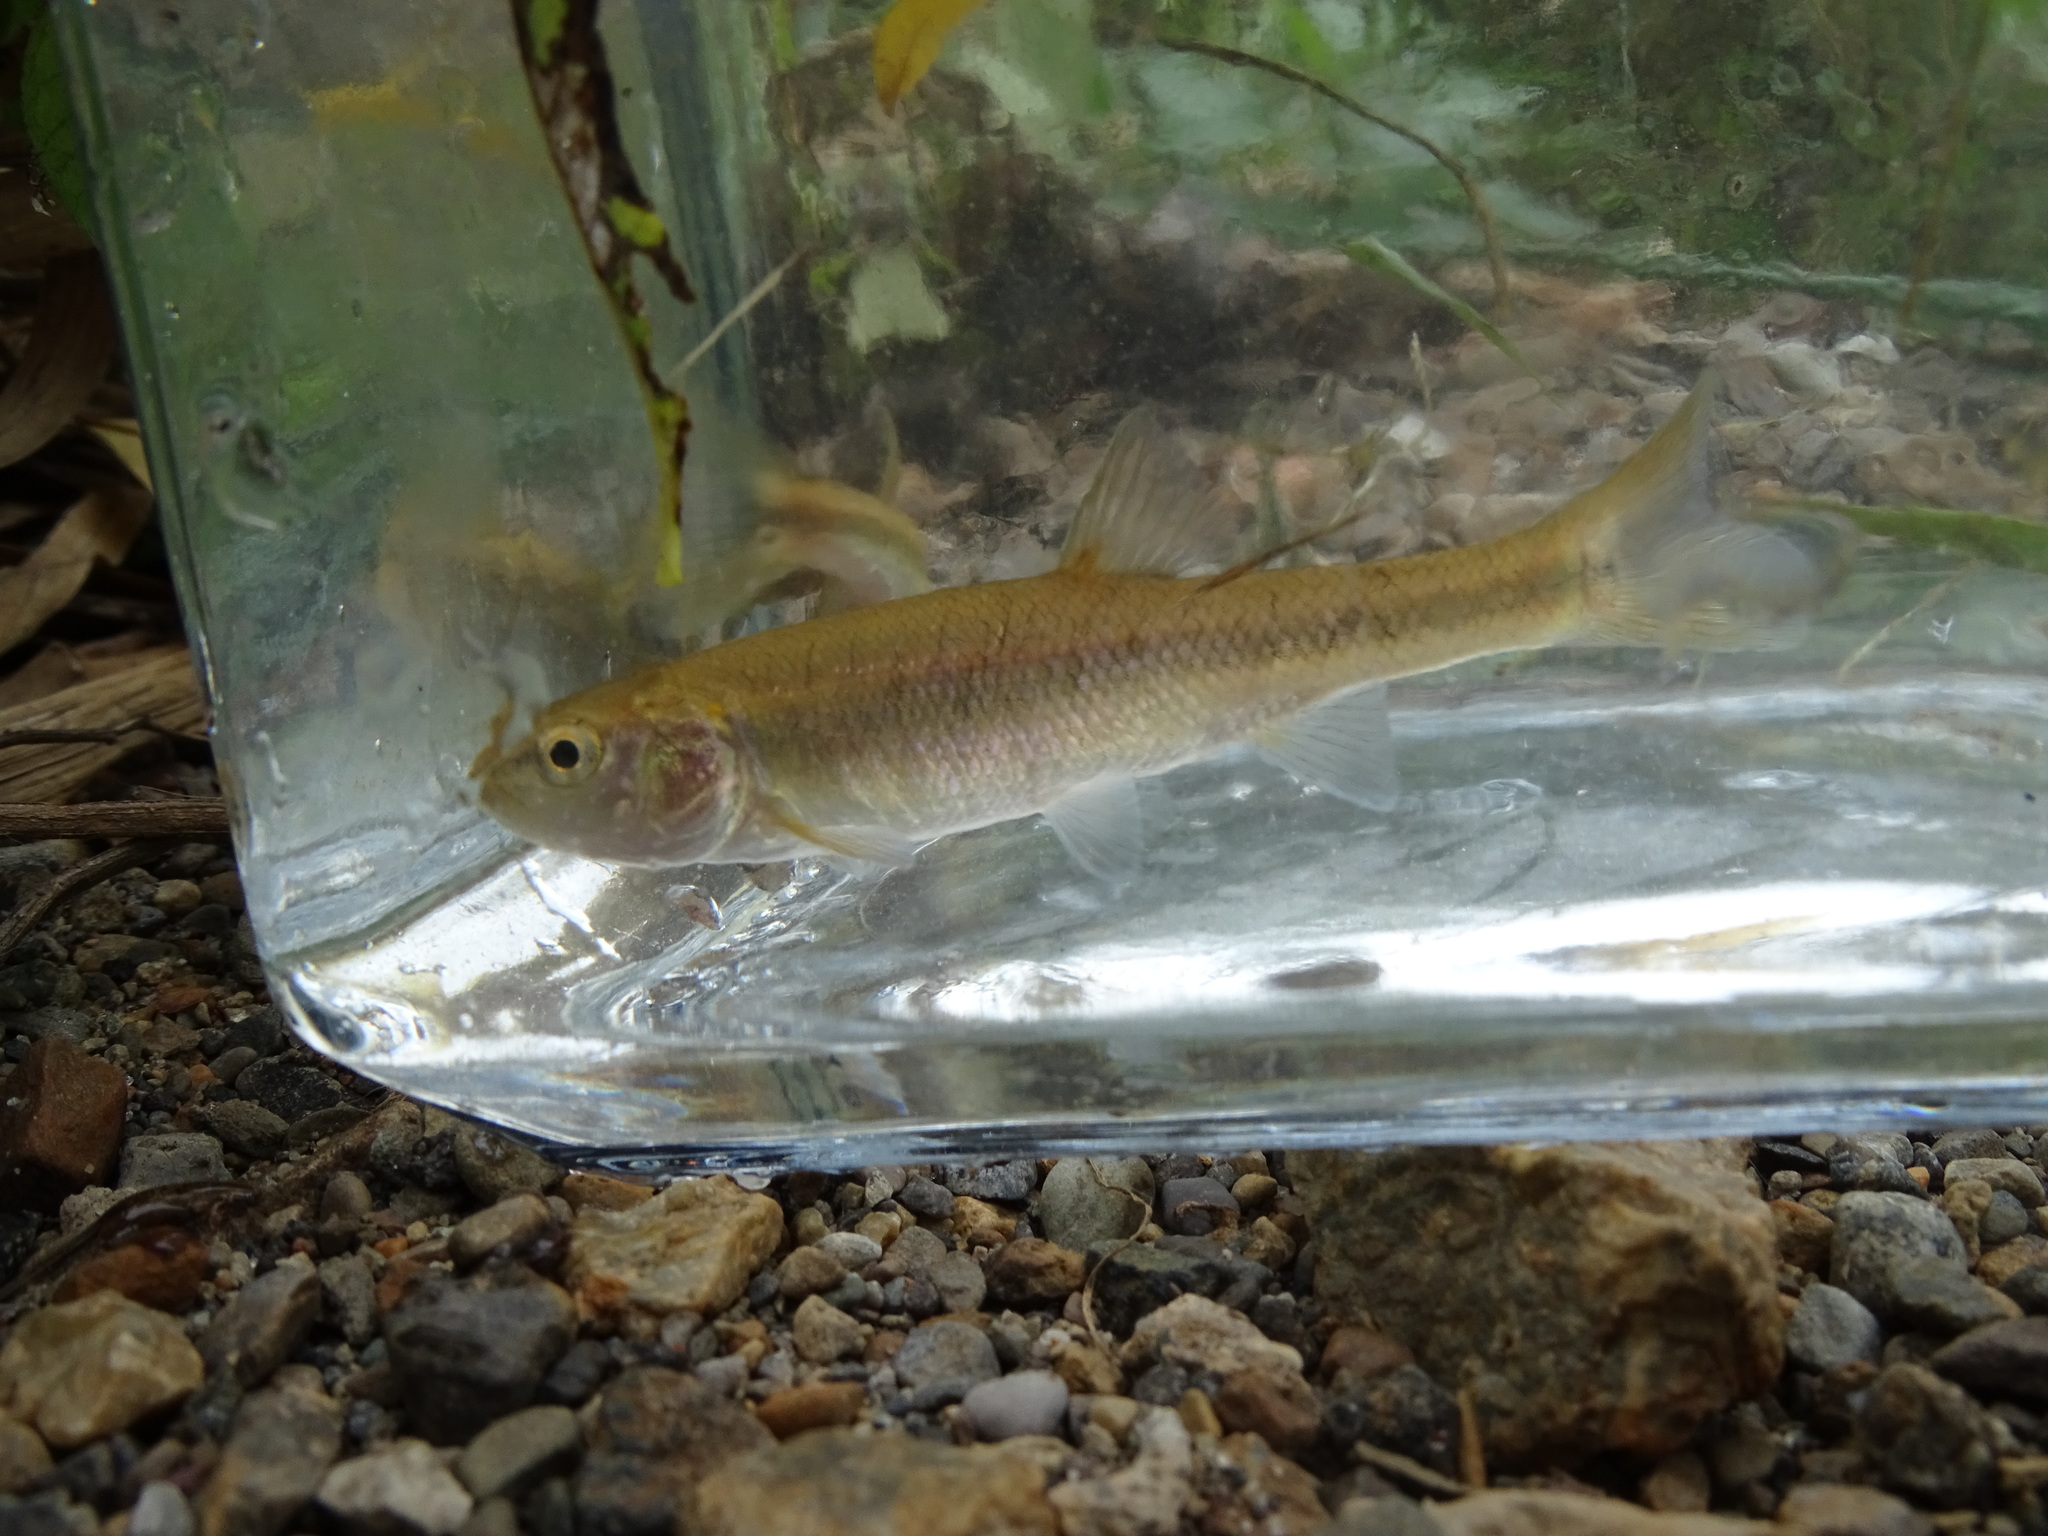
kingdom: Animalia
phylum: Chordata
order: Cypriniformes
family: Cyprinidae
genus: Semotilus
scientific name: Semotilus atromaculatus
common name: Creek chub
